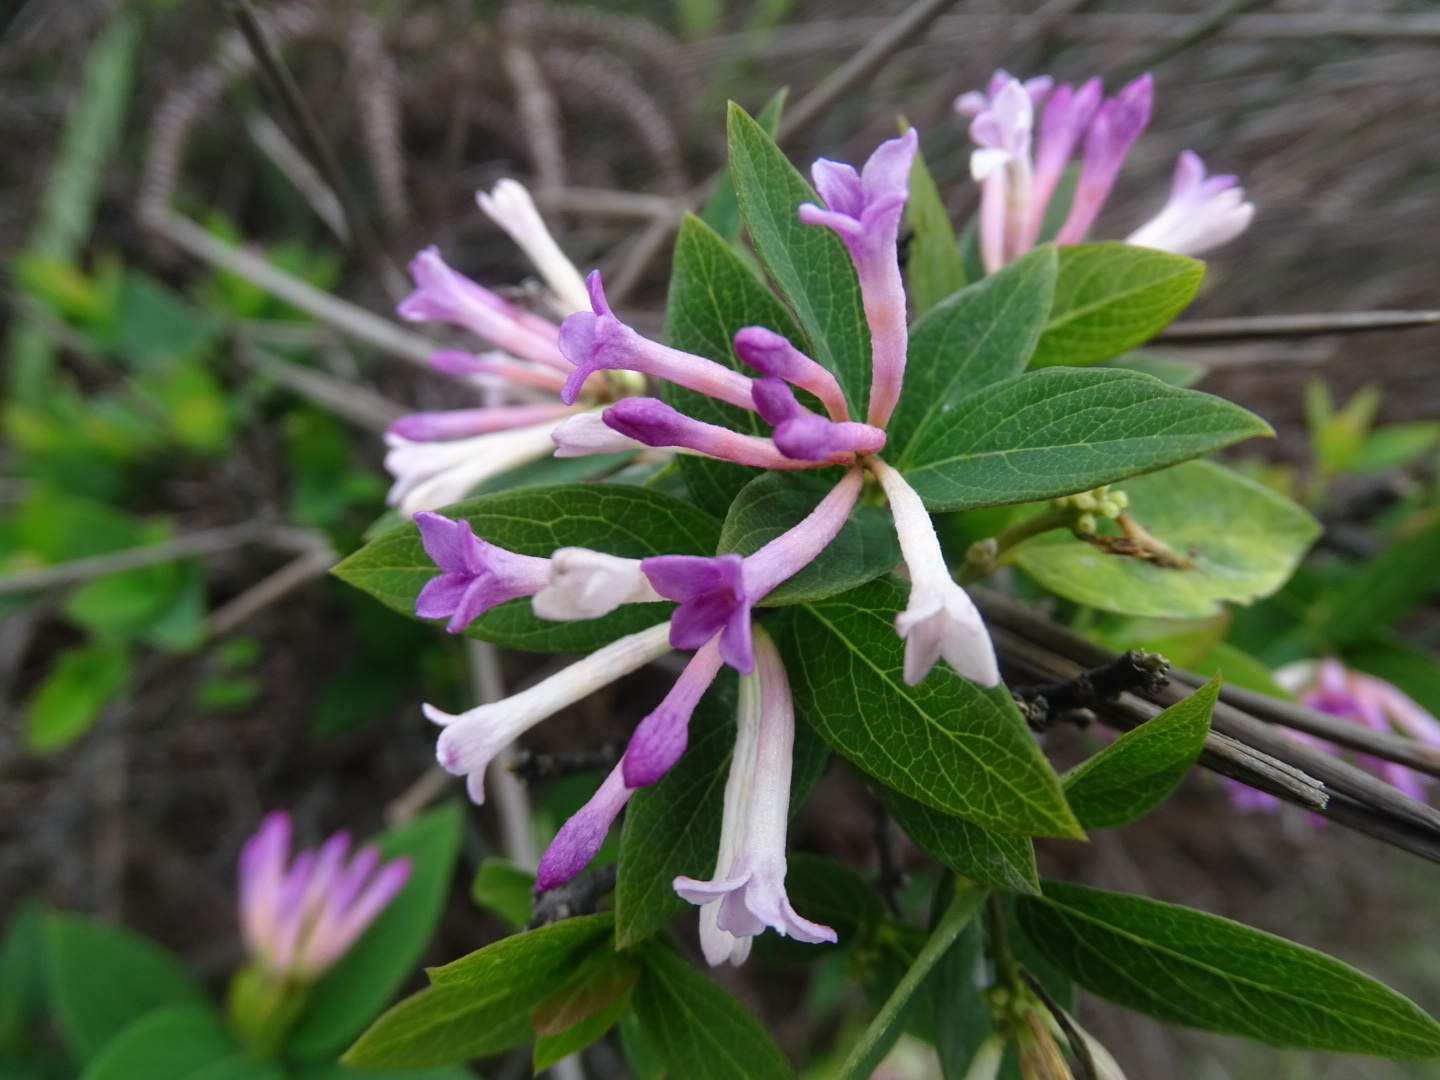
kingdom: Plantae
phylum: Tracheophyta
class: Magnoliopsida
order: Malvales
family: Thymelaeaceae
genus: Wikstroemia
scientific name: Wikstroemia monnula
